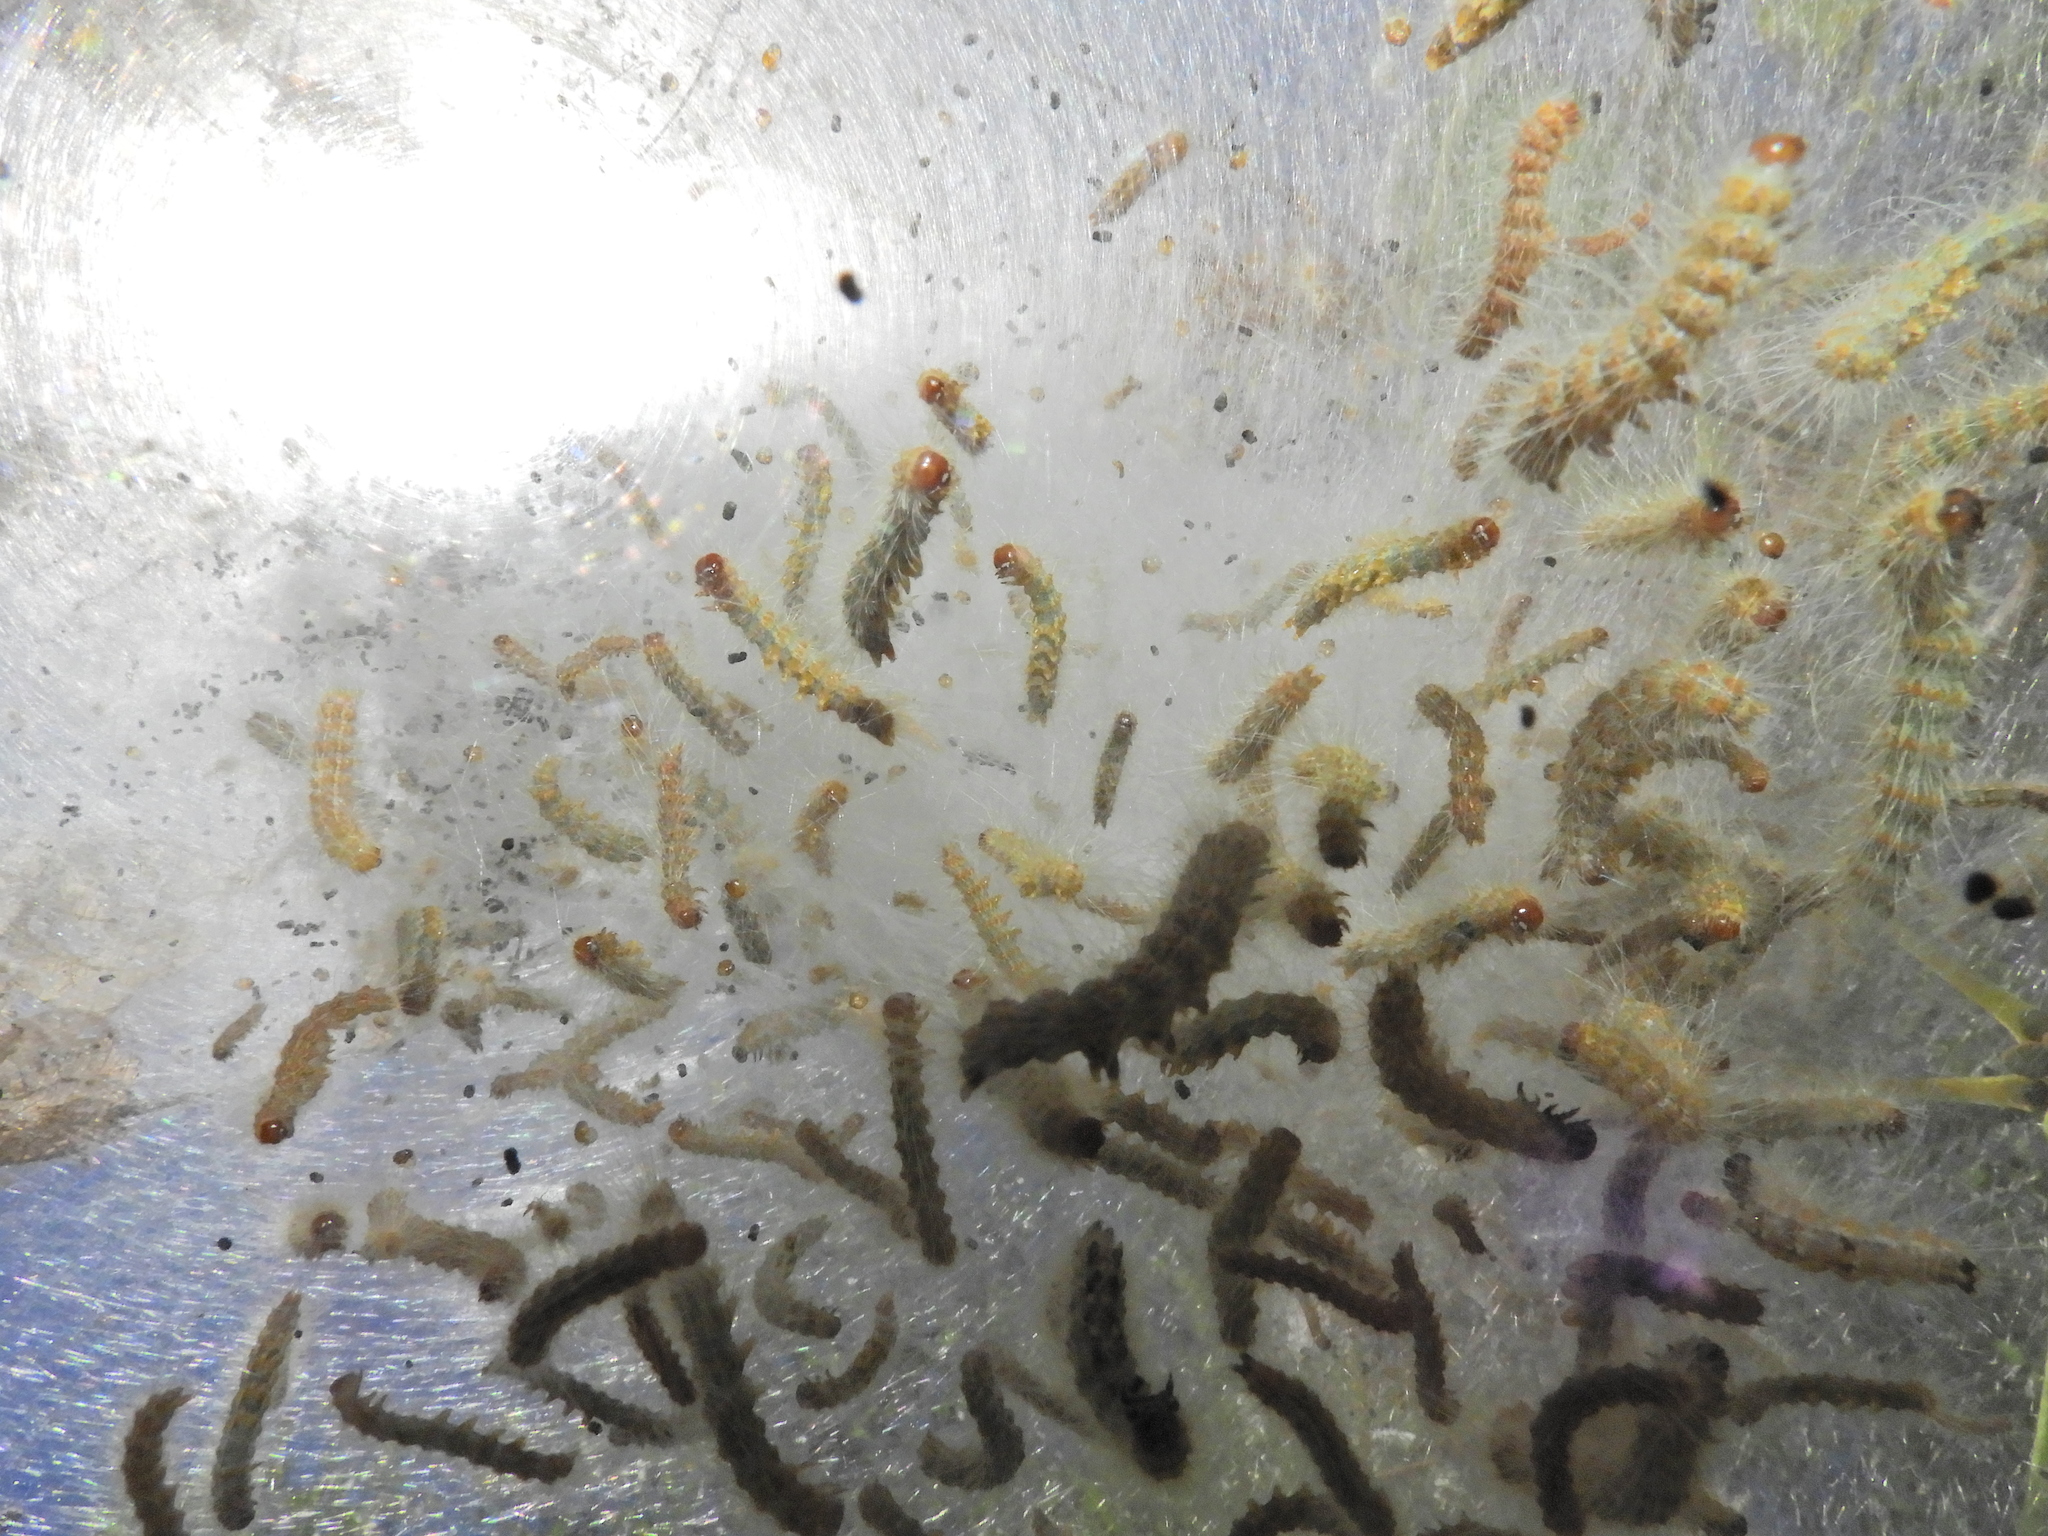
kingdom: Animalia
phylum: Arthropoda
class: Insecta
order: Lepidoptera
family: Erebidae
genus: Hyphantria
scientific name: Hyphantria cunea
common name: American white moth
